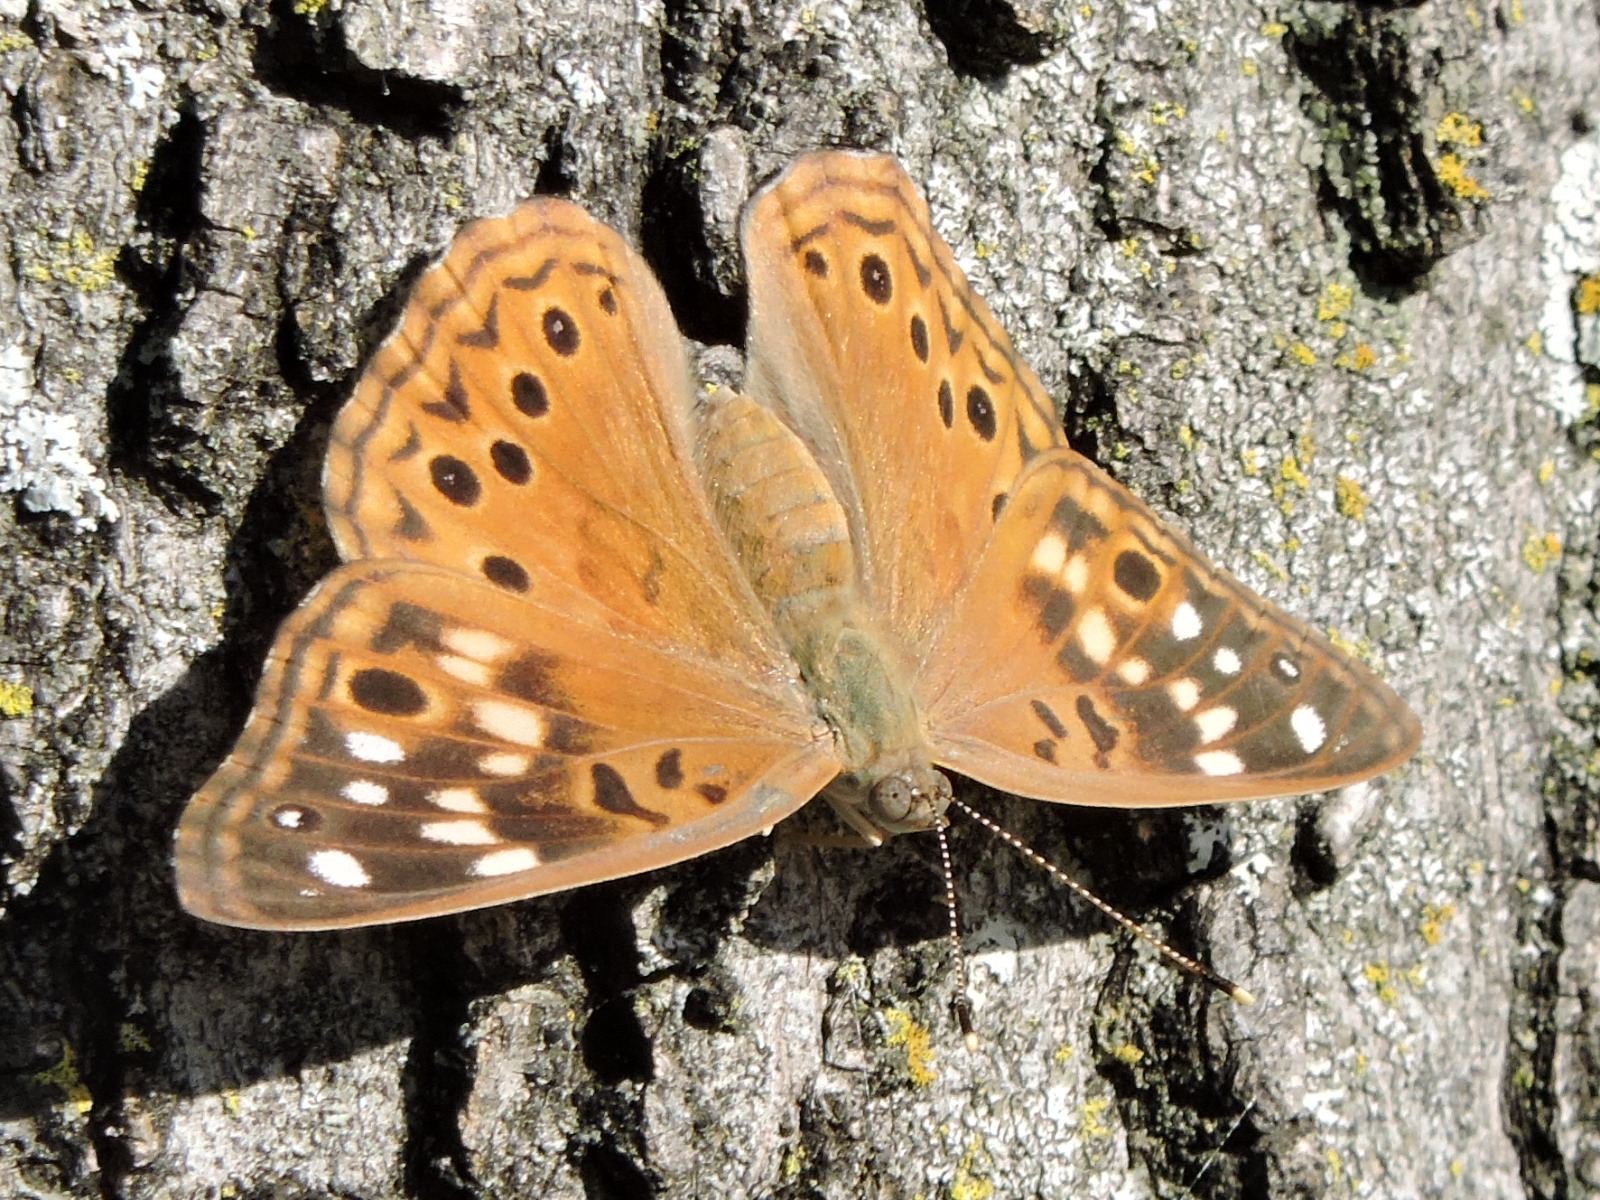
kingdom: Animalia
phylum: Arthropoda
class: Insecta
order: Lepidoptera
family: Nymphalidae
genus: Asterocampa
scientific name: Asterocampa celtis
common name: Hackberry emperor
